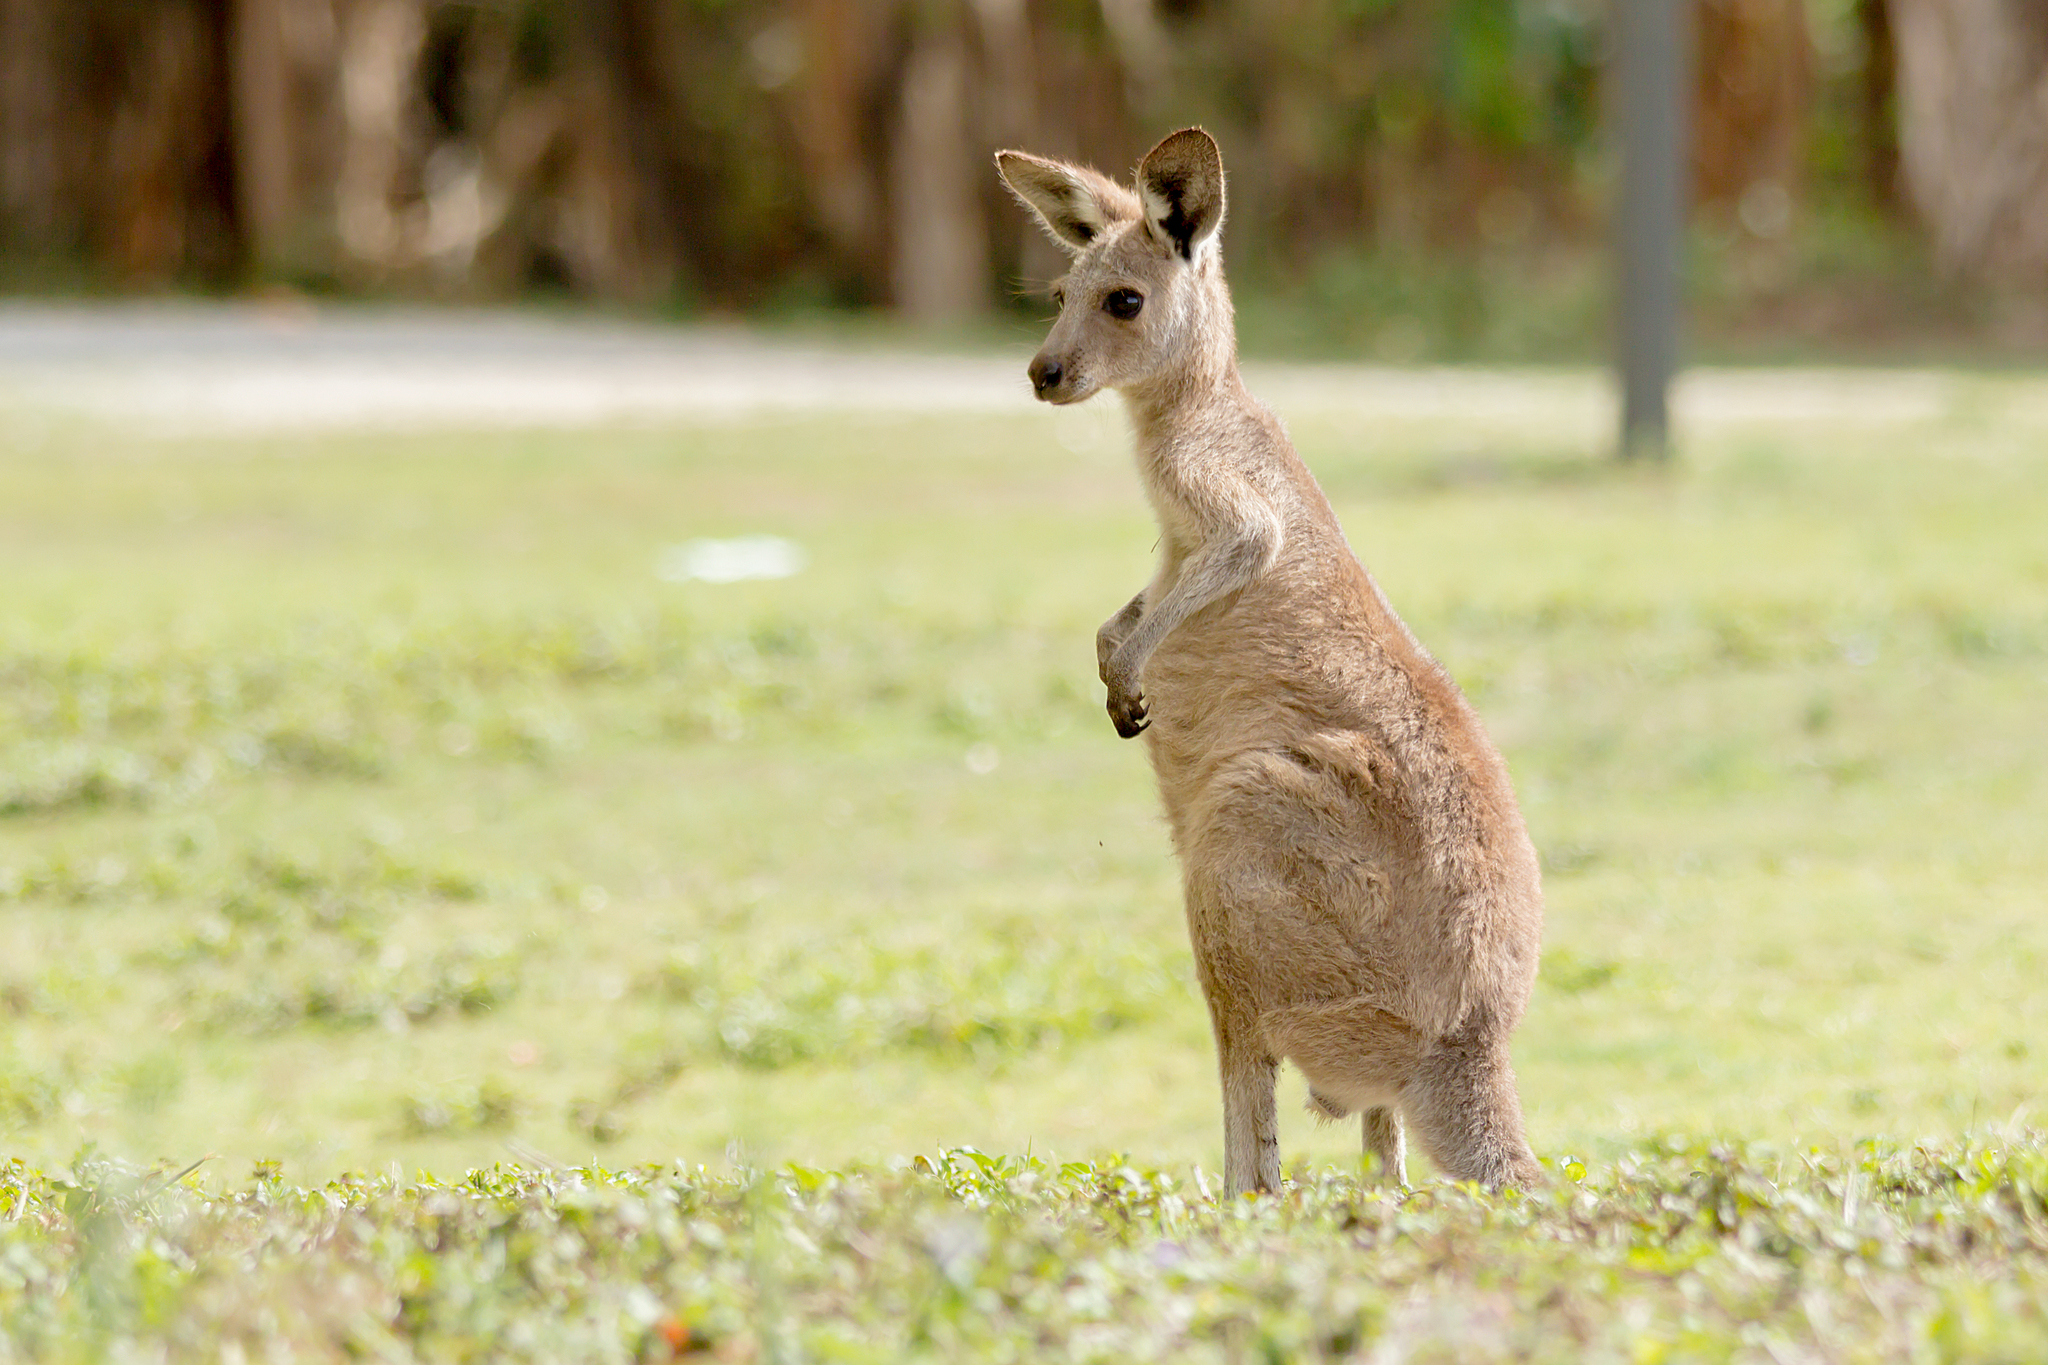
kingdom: Animalia
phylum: Chordata
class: Mammalia
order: Diprotodontia
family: Macropodidae
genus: Macropus
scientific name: Macropus giganteus
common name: Eastern grey kangaroo
